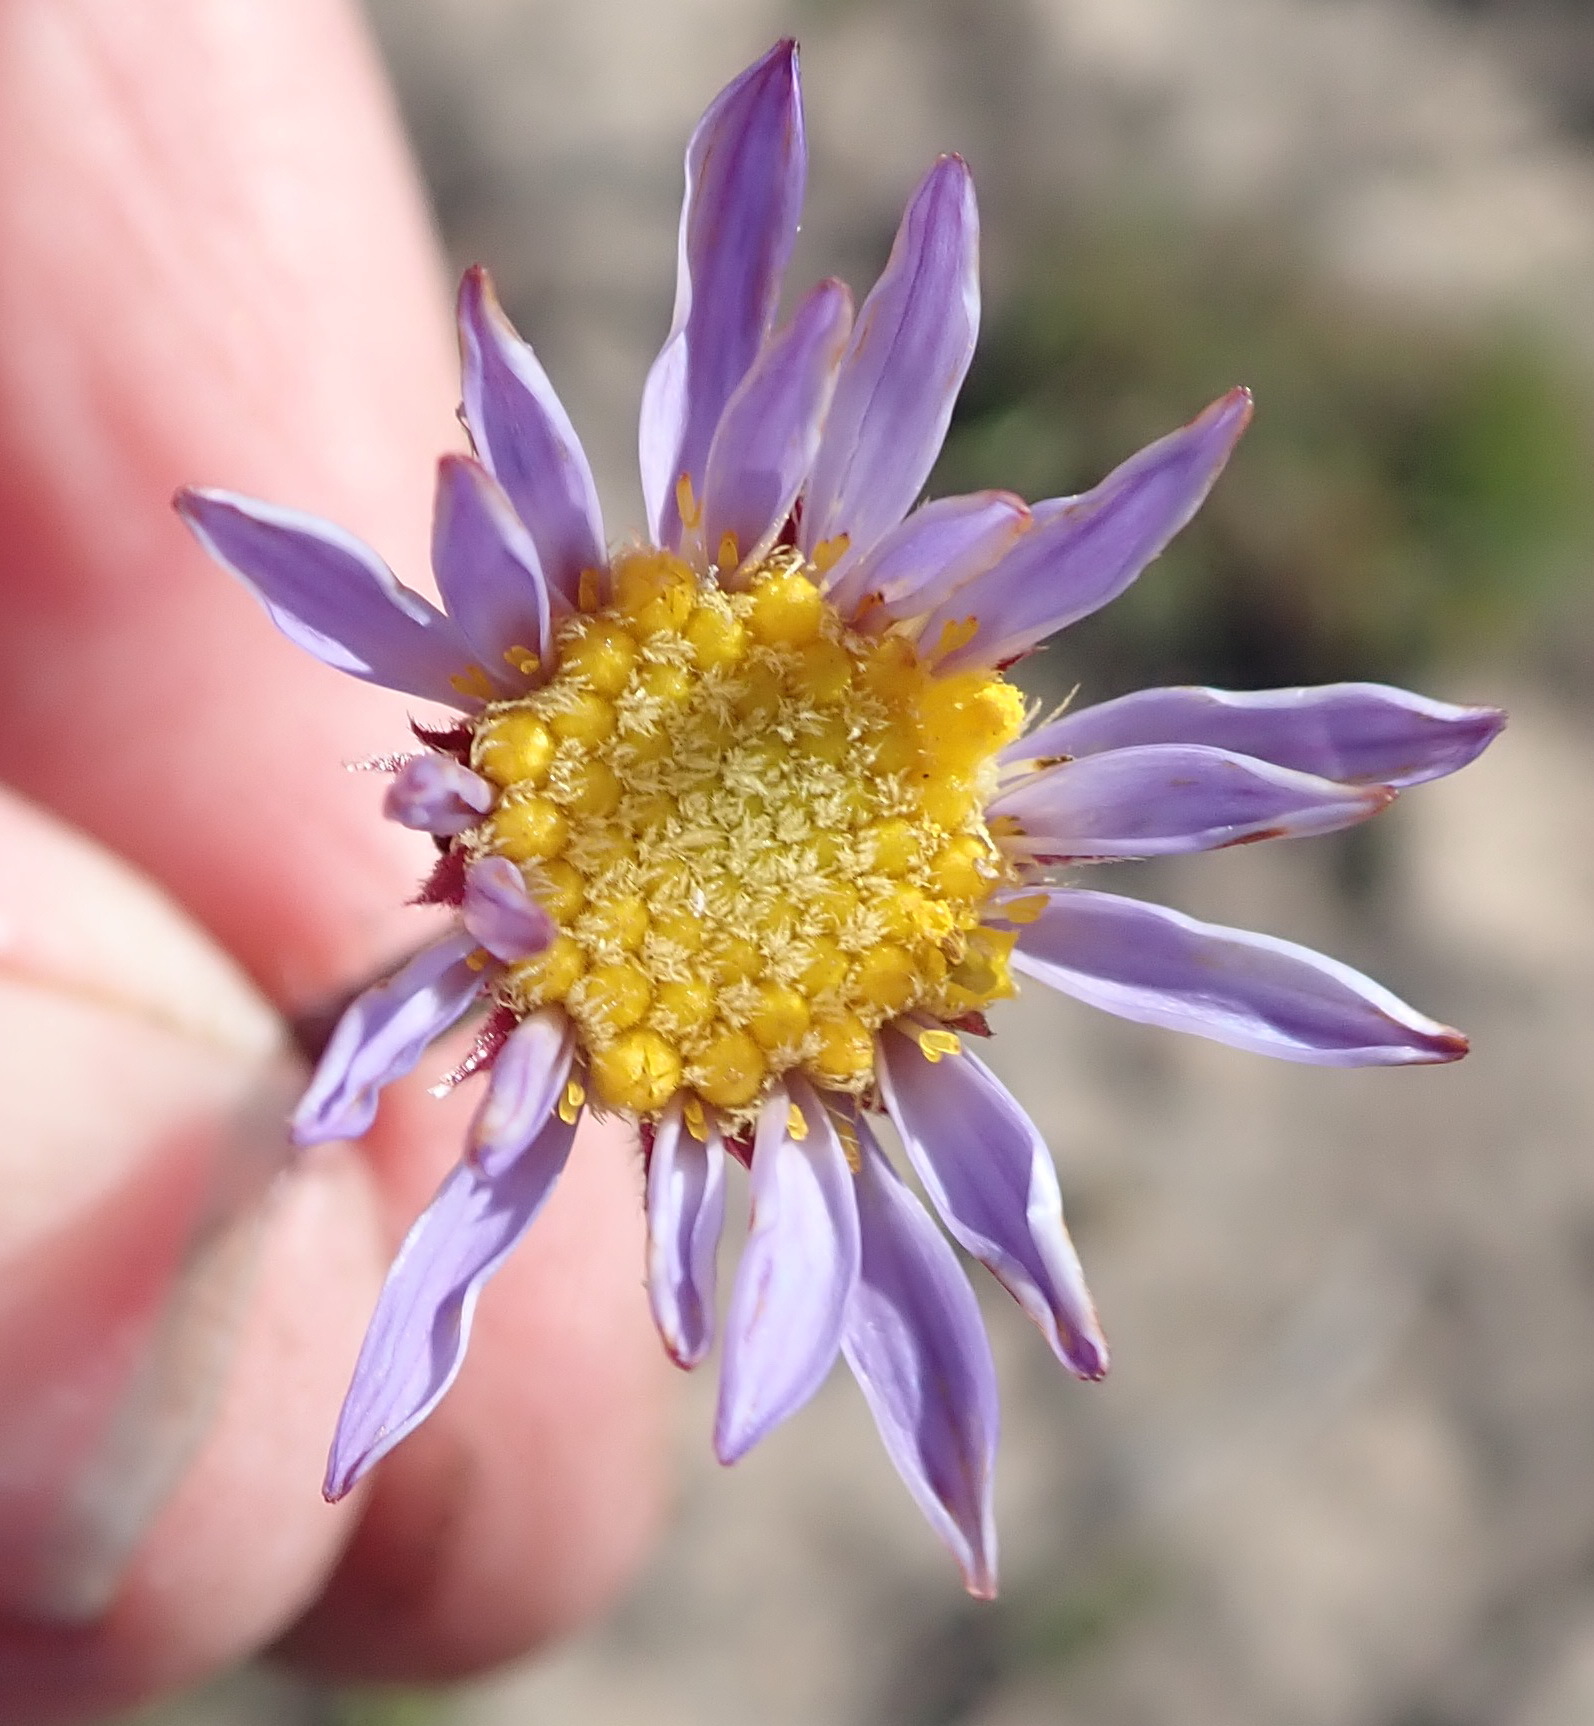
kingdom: Plantae
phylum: Tracheophyta
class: Magnoliopsida
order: Asterales
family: Asteraceae
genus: Afroaster
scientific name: Afroaster hispidus
